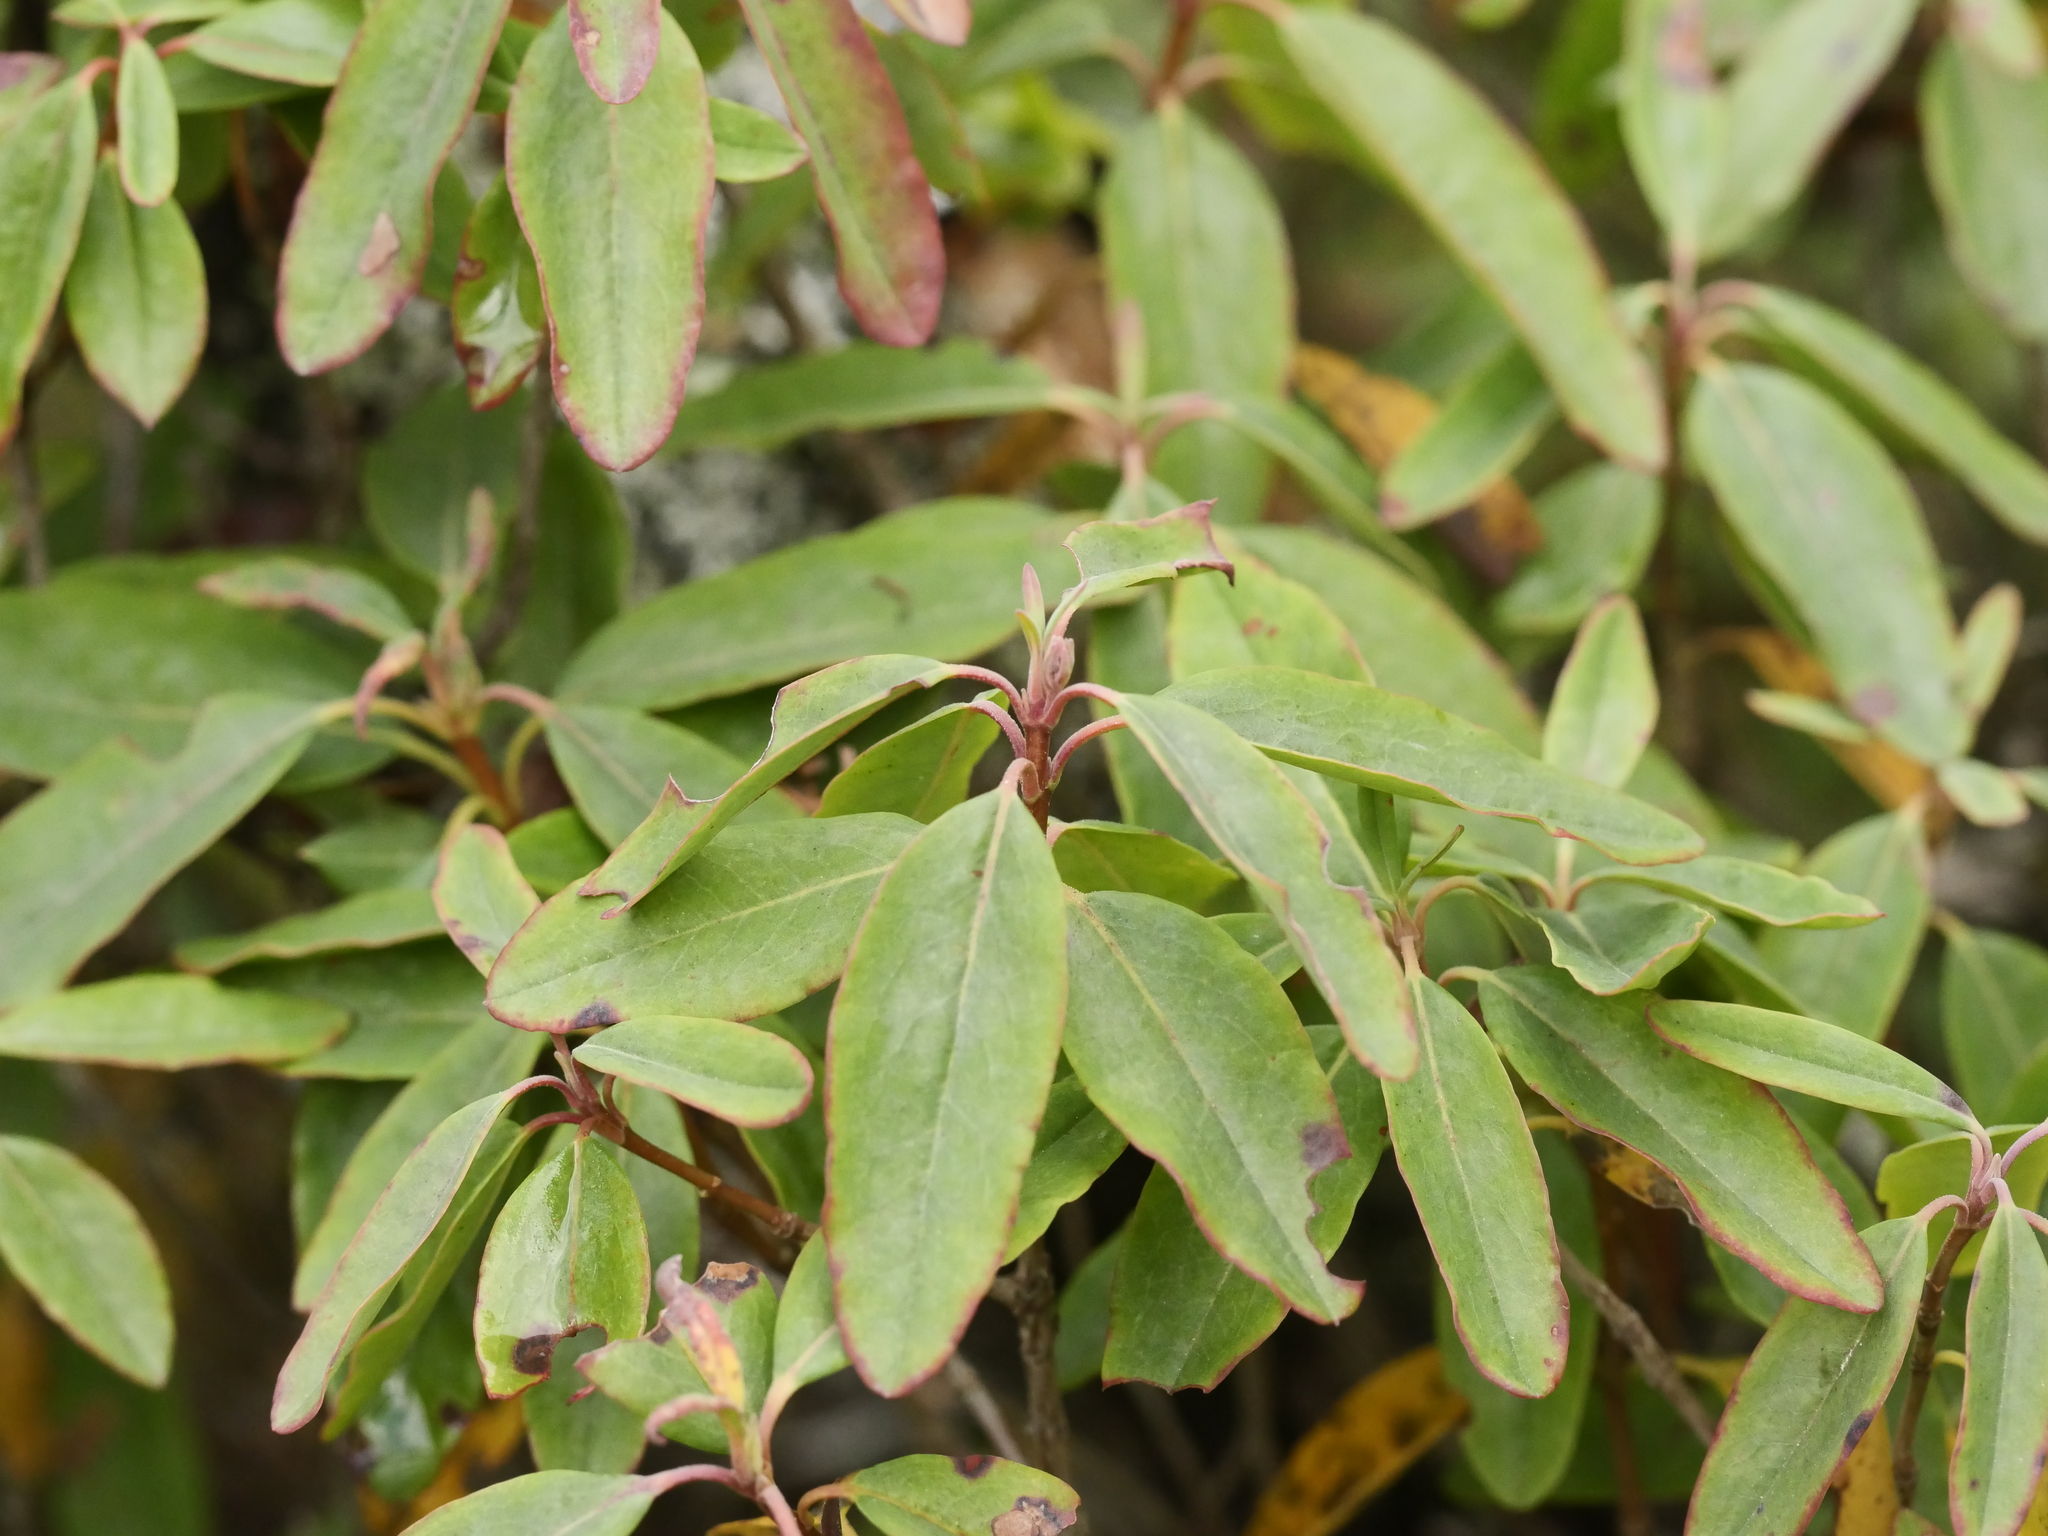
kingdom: Plantae
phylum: Tracheophyta
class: Magnoliopsida
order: Ericales
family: Ericaceae
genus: Kalmia
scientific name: Kalmia angustifolia
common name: Sheep-laurel
